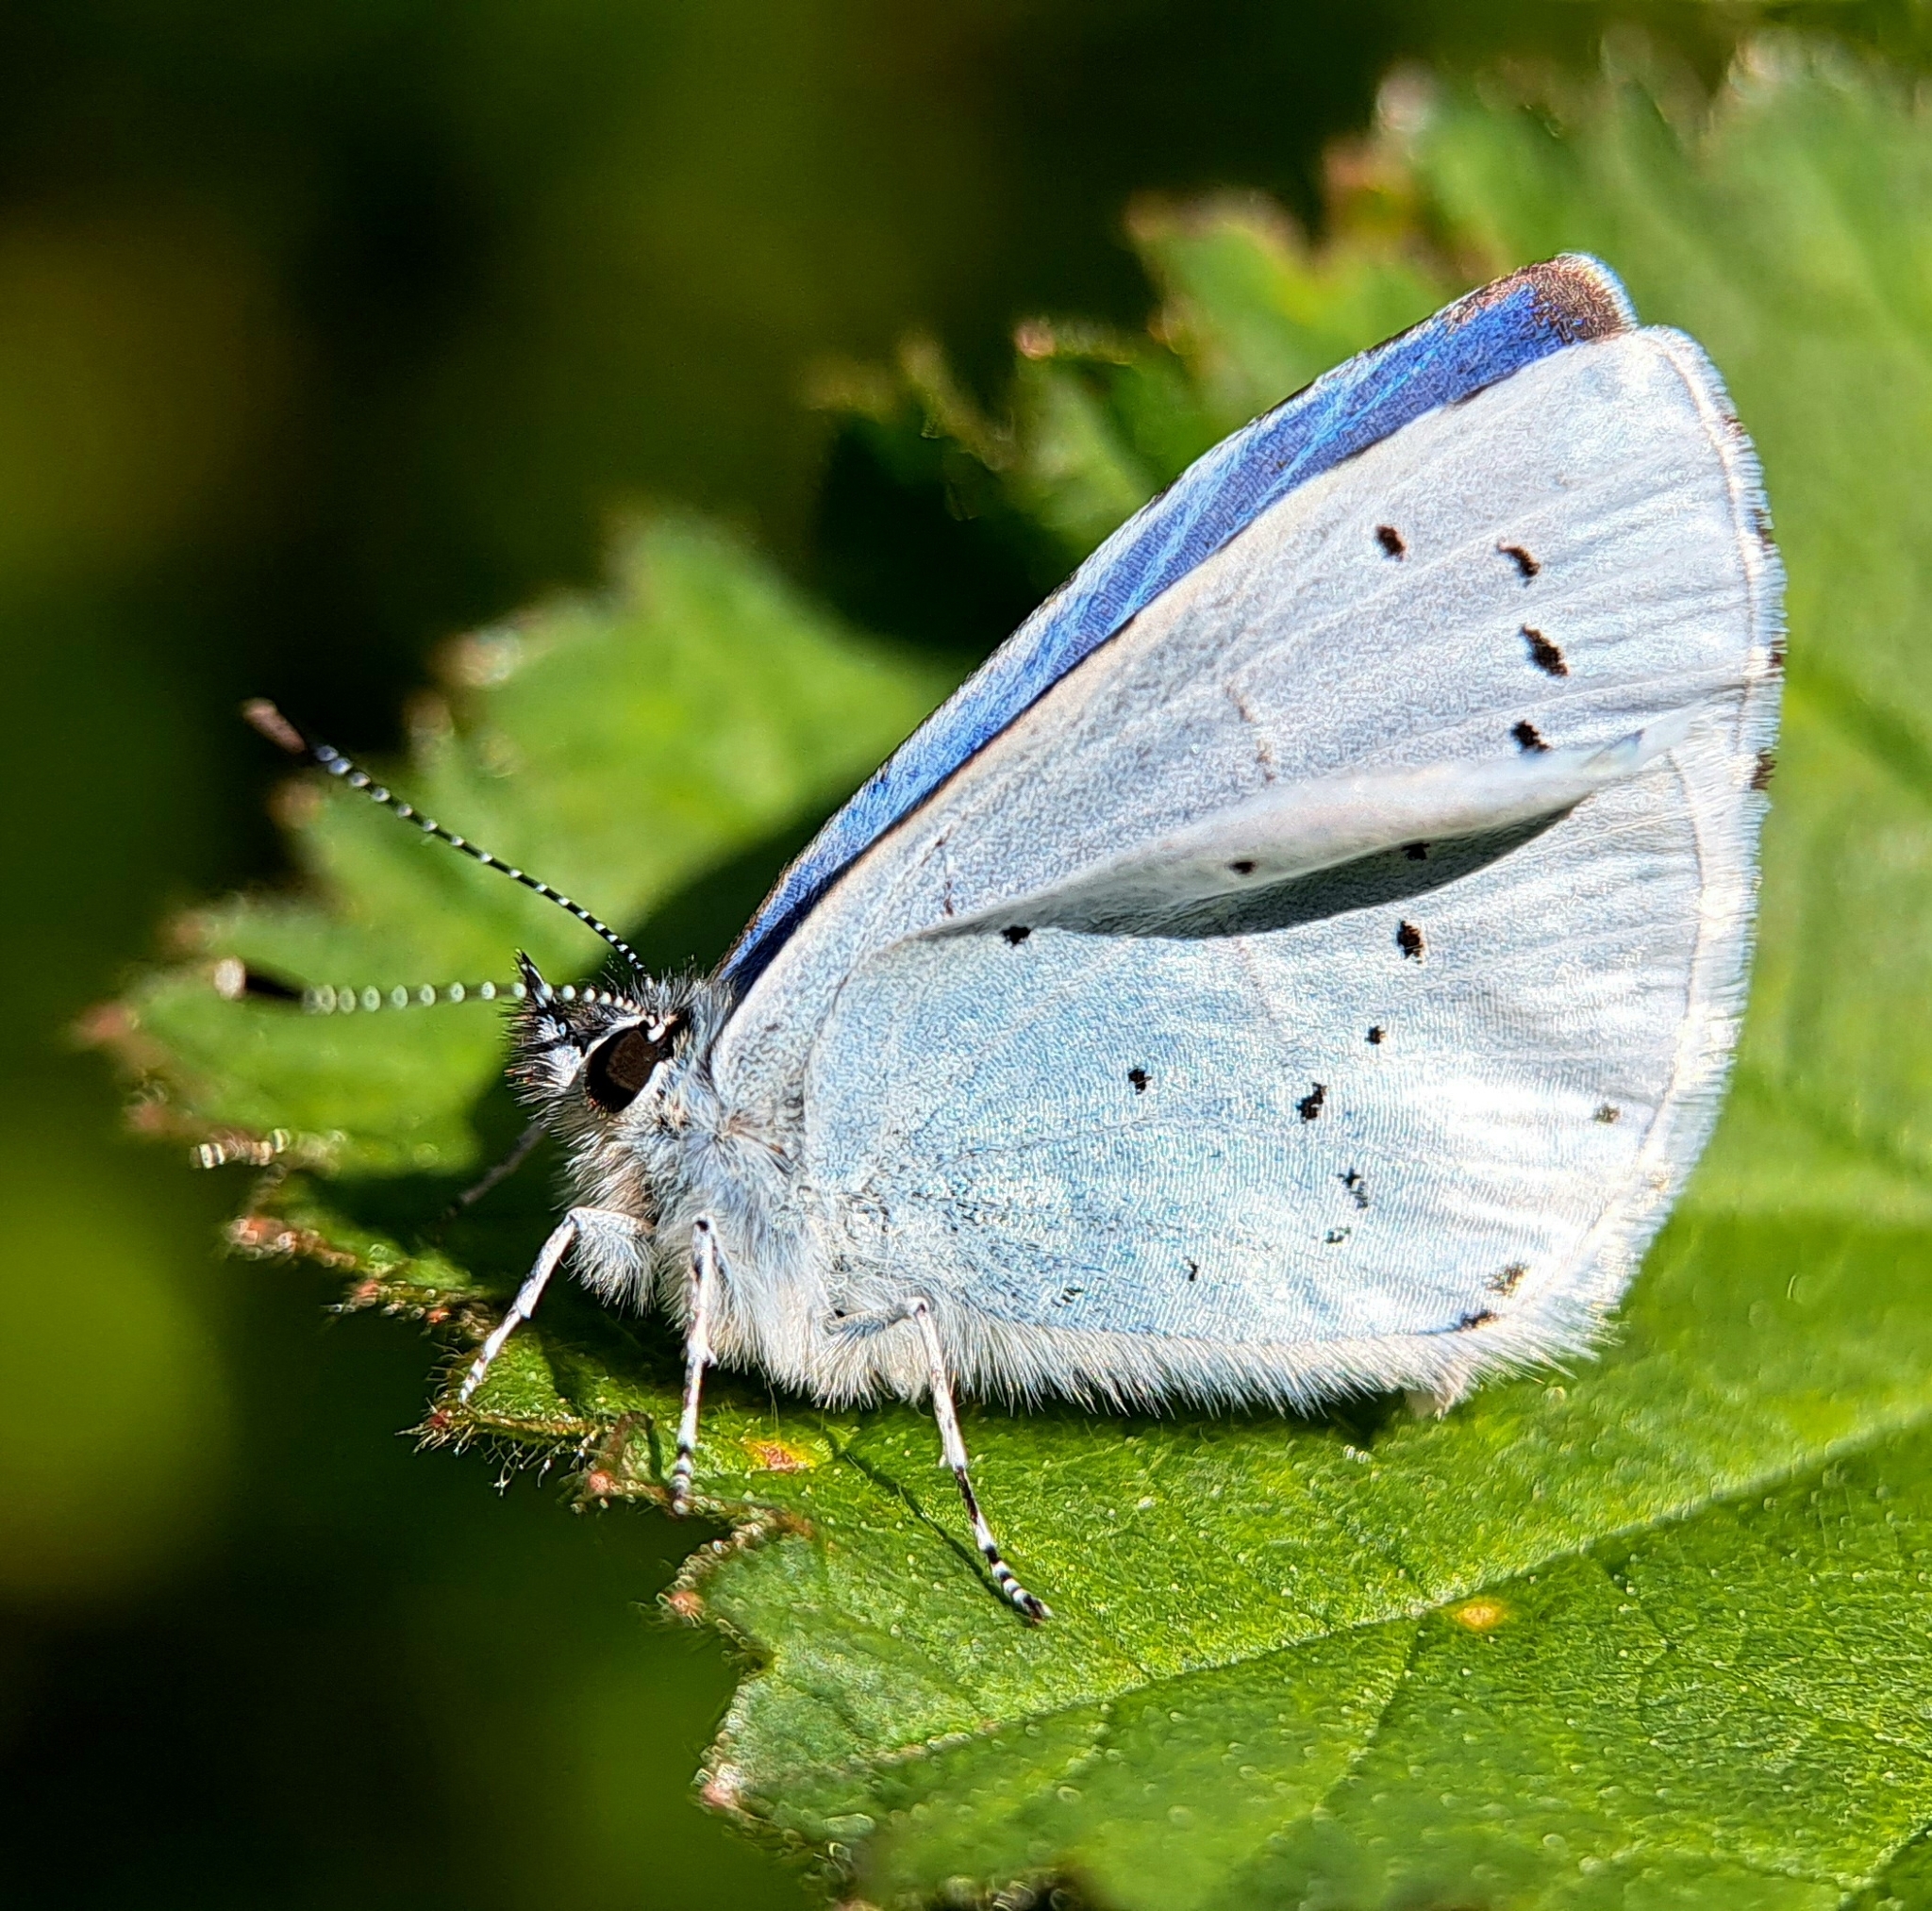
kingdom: Animalia
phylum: Arthropoda
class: Insecta
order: Lepidoptera
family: Lycaenidae
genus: Celastrina
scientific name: Celastrina argiolus
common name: Holly blue
